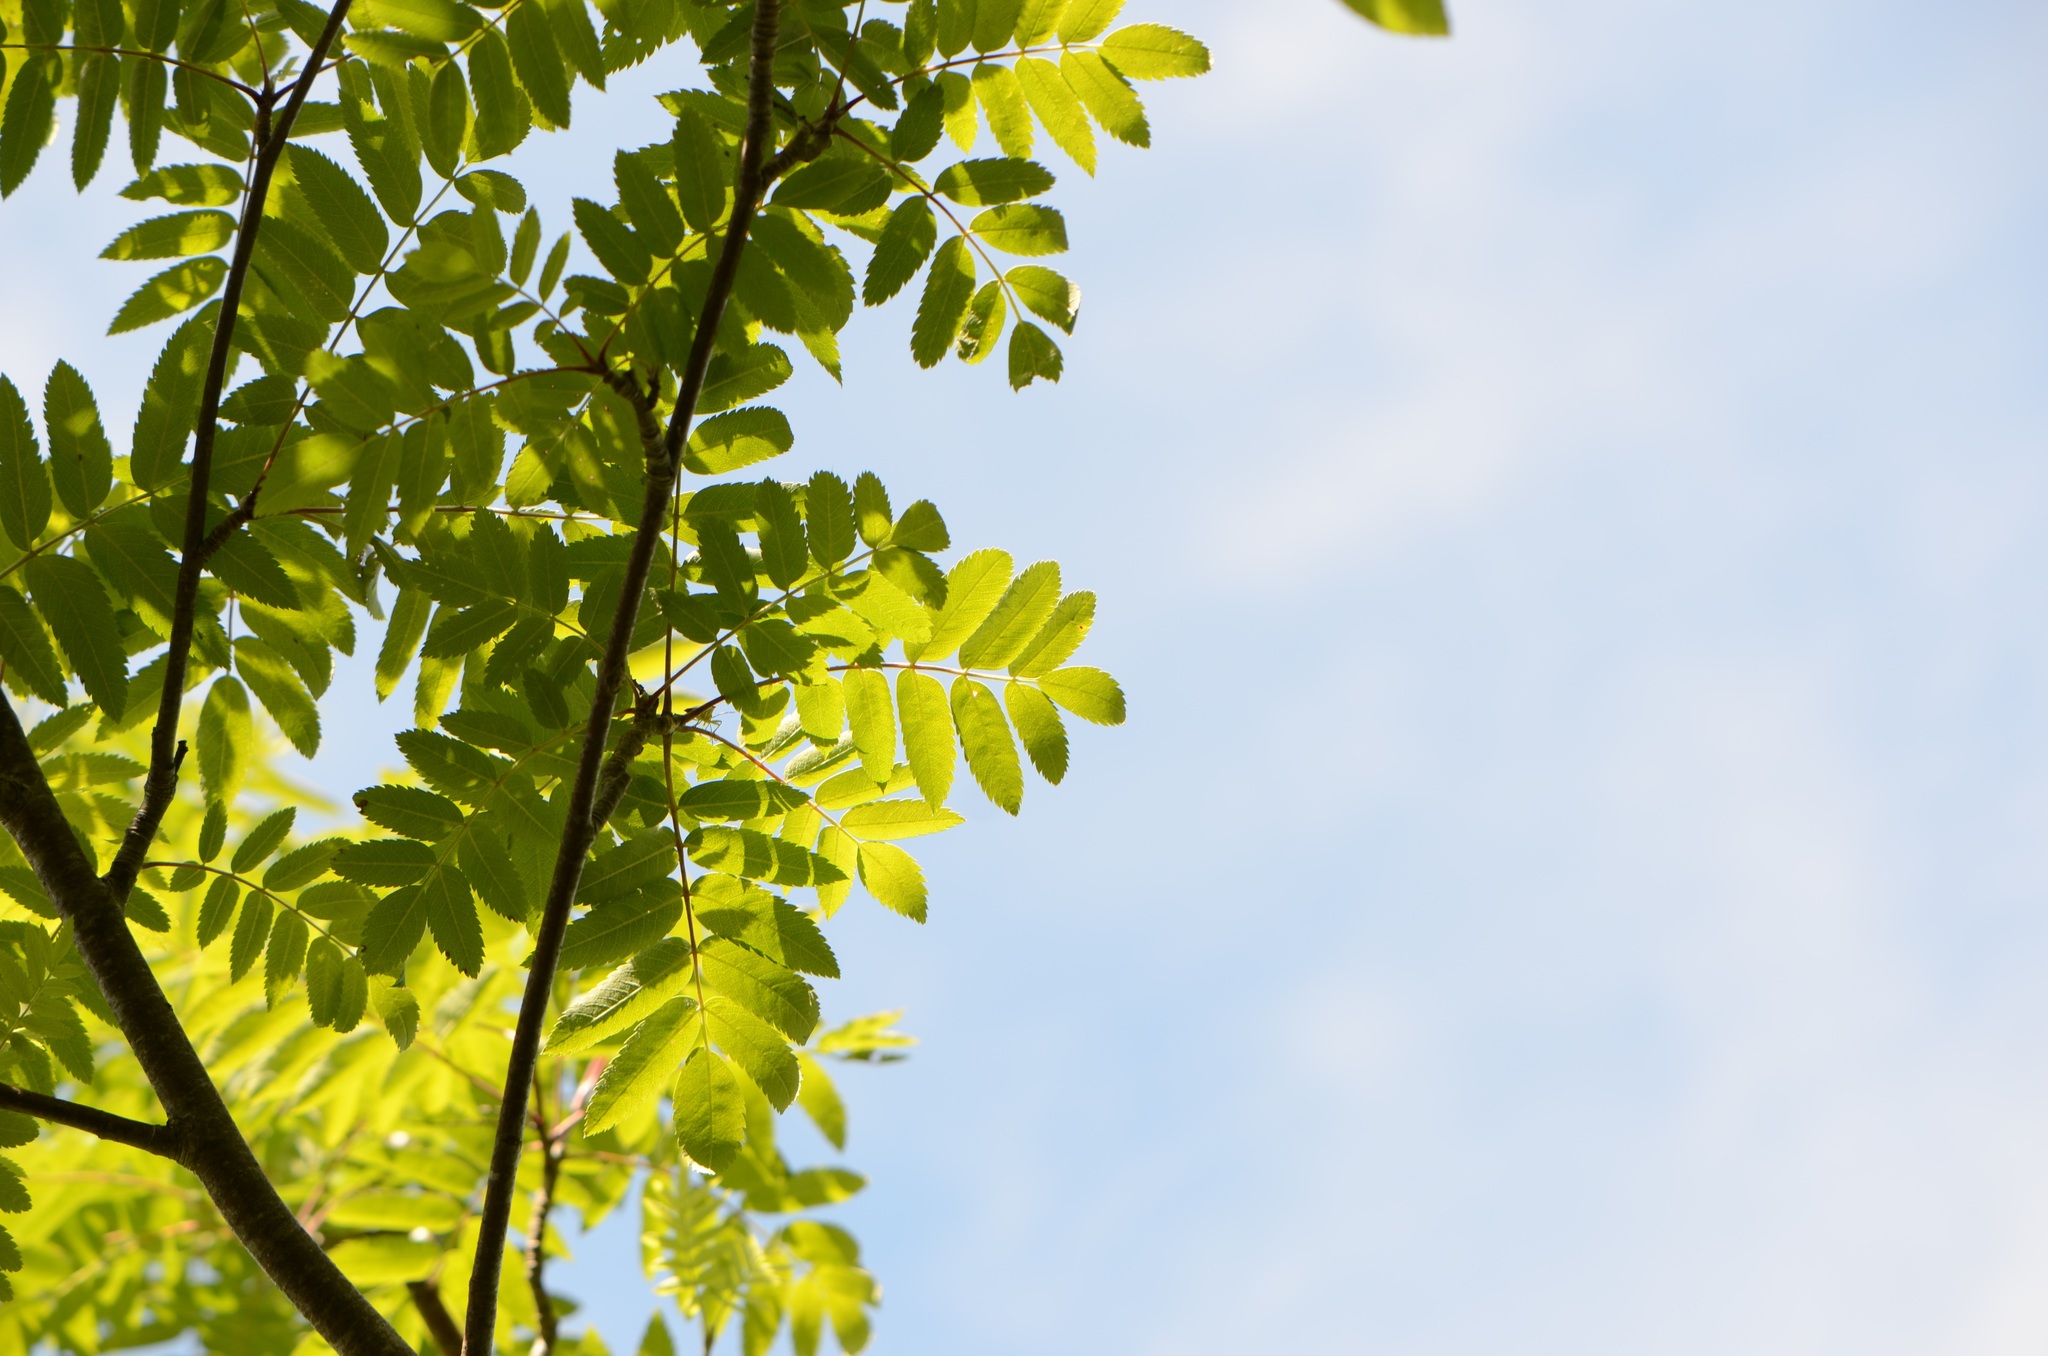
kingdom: Plantae
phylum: Tracheophyta
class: Magnoliopsida
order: Rosales
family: Rosaceae
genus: Sorbus
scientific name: Sorbus aucuparia
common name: Rowan
